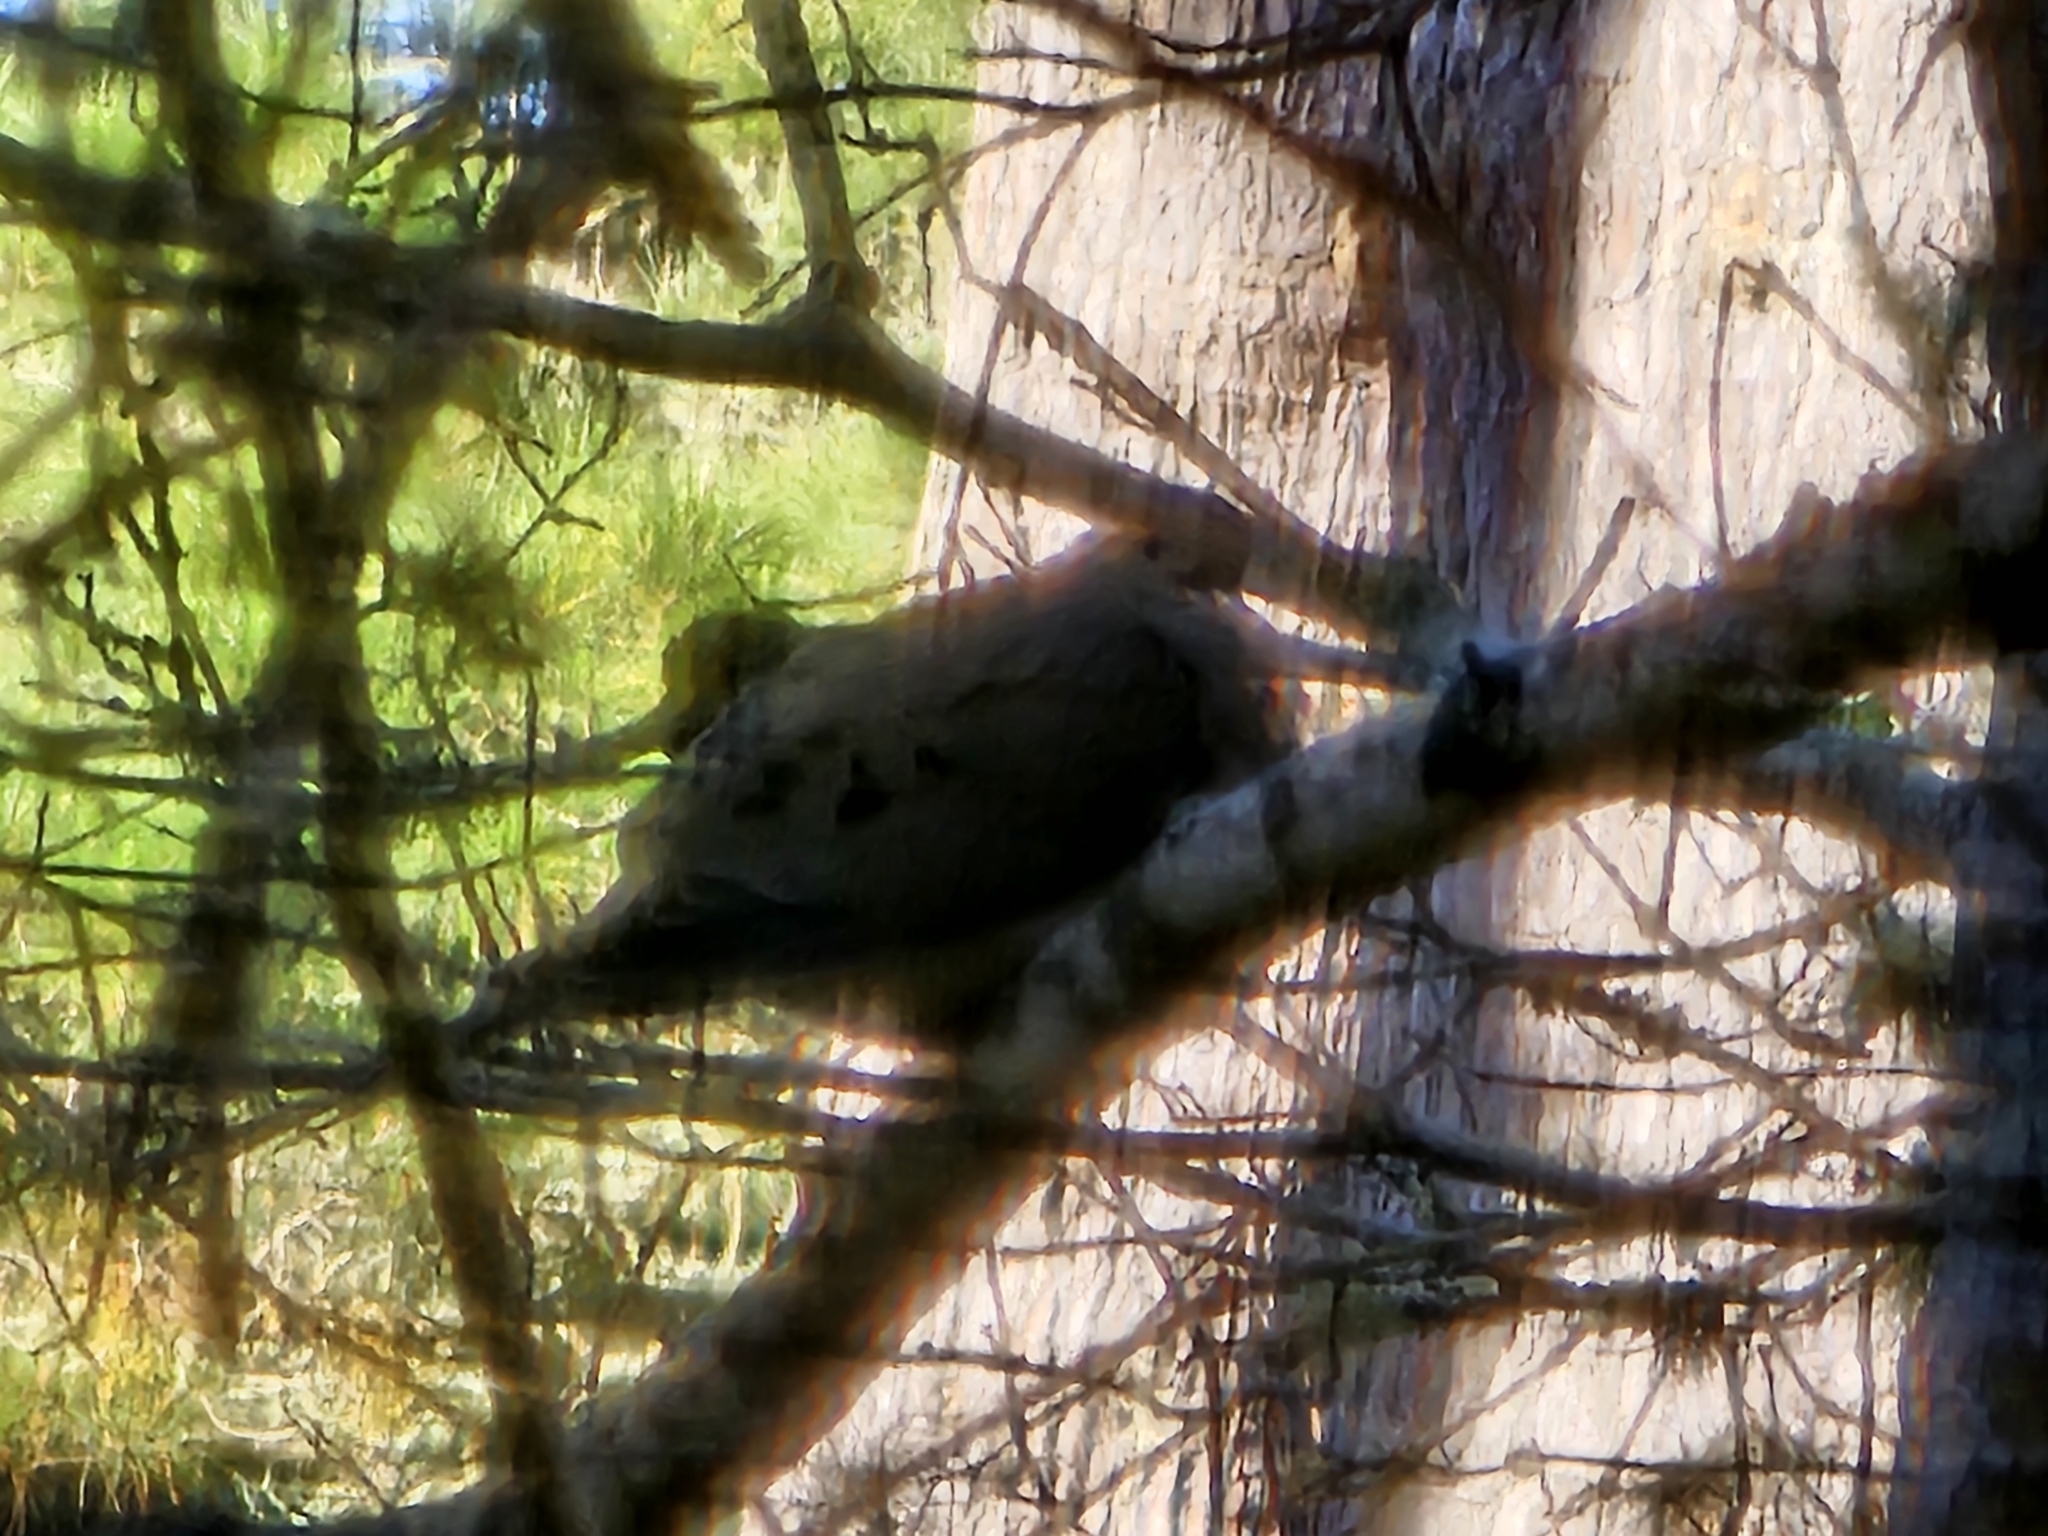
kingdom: Animalia
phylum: Chordata
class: Aves
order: Columbiformes
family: Columbidae
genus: Zenaida
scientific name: Zenaida macroura
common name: Mourning dove
